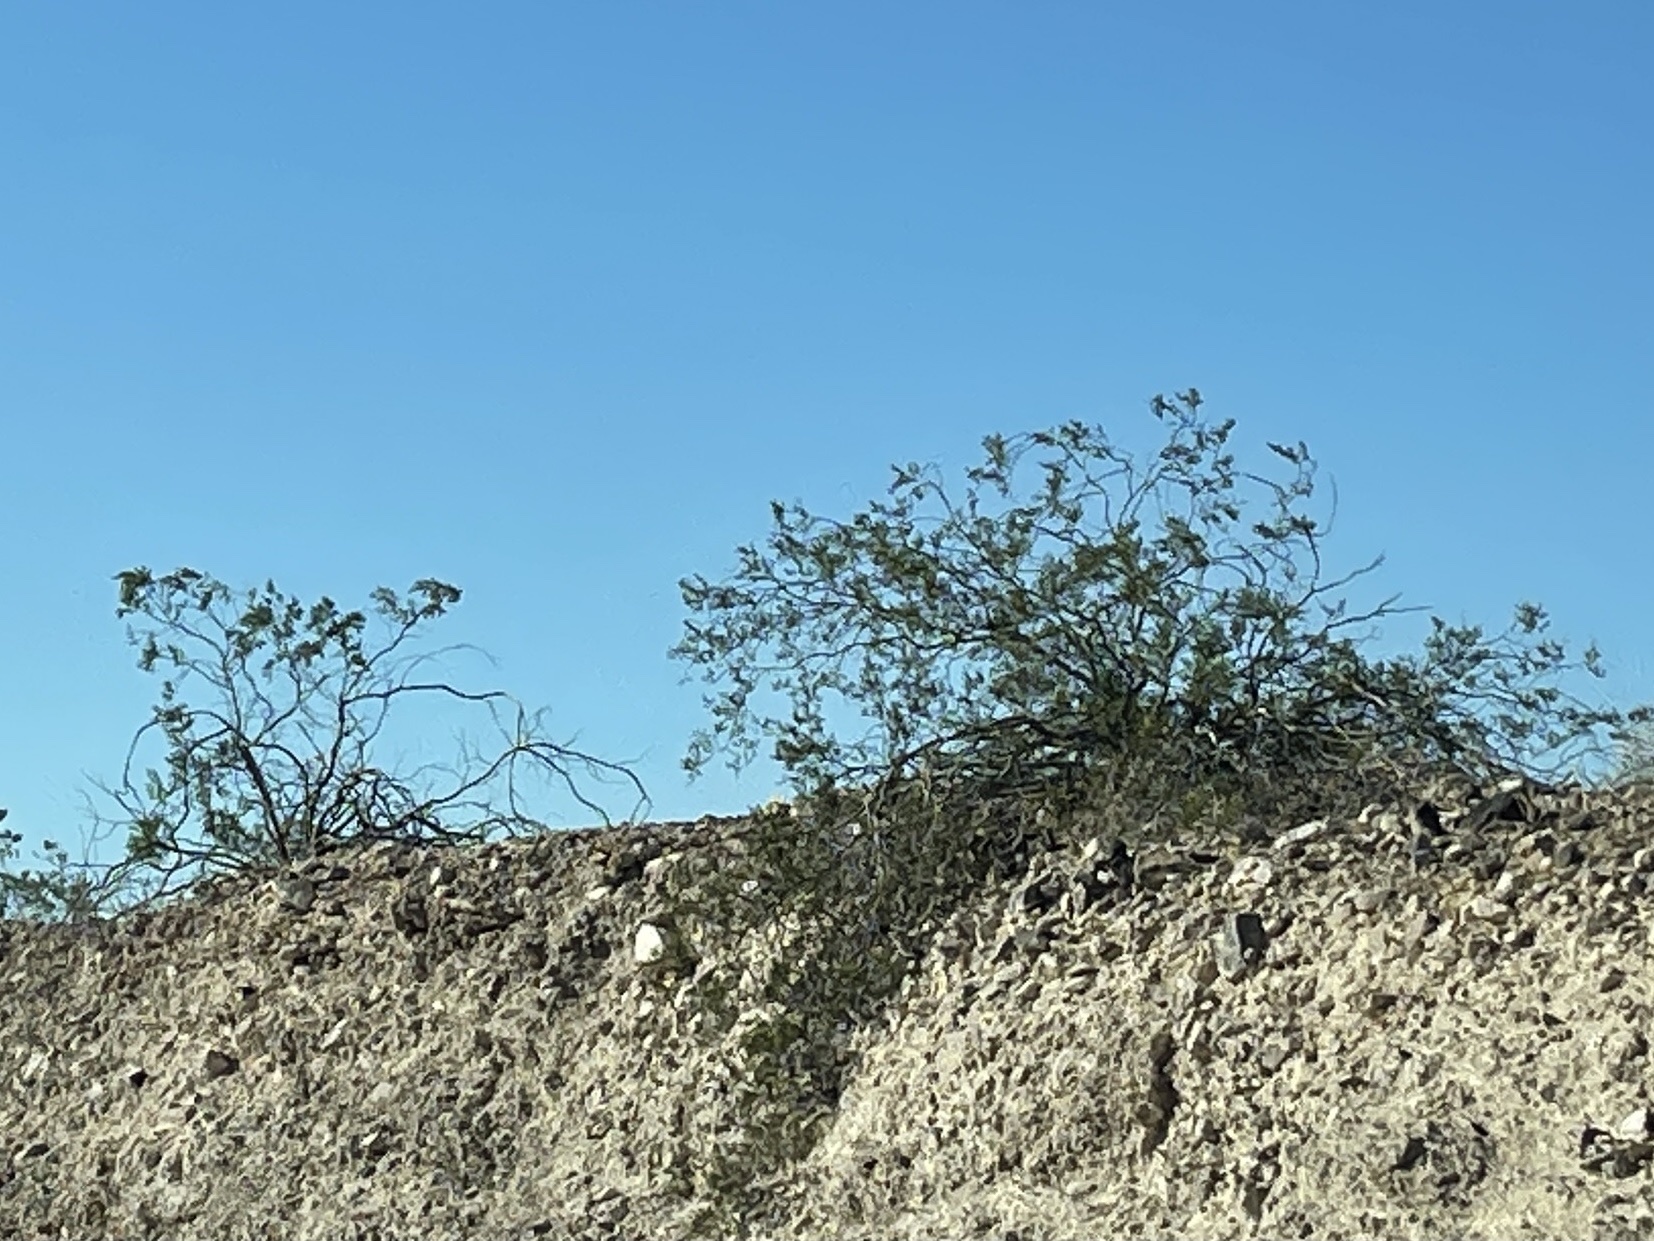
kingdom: Plantae
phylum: Tracheophyta
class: Magnoliopsida
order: Zygophyllales
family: Zygophyllaceae
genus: Larrea
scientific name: Larrea tridentata
